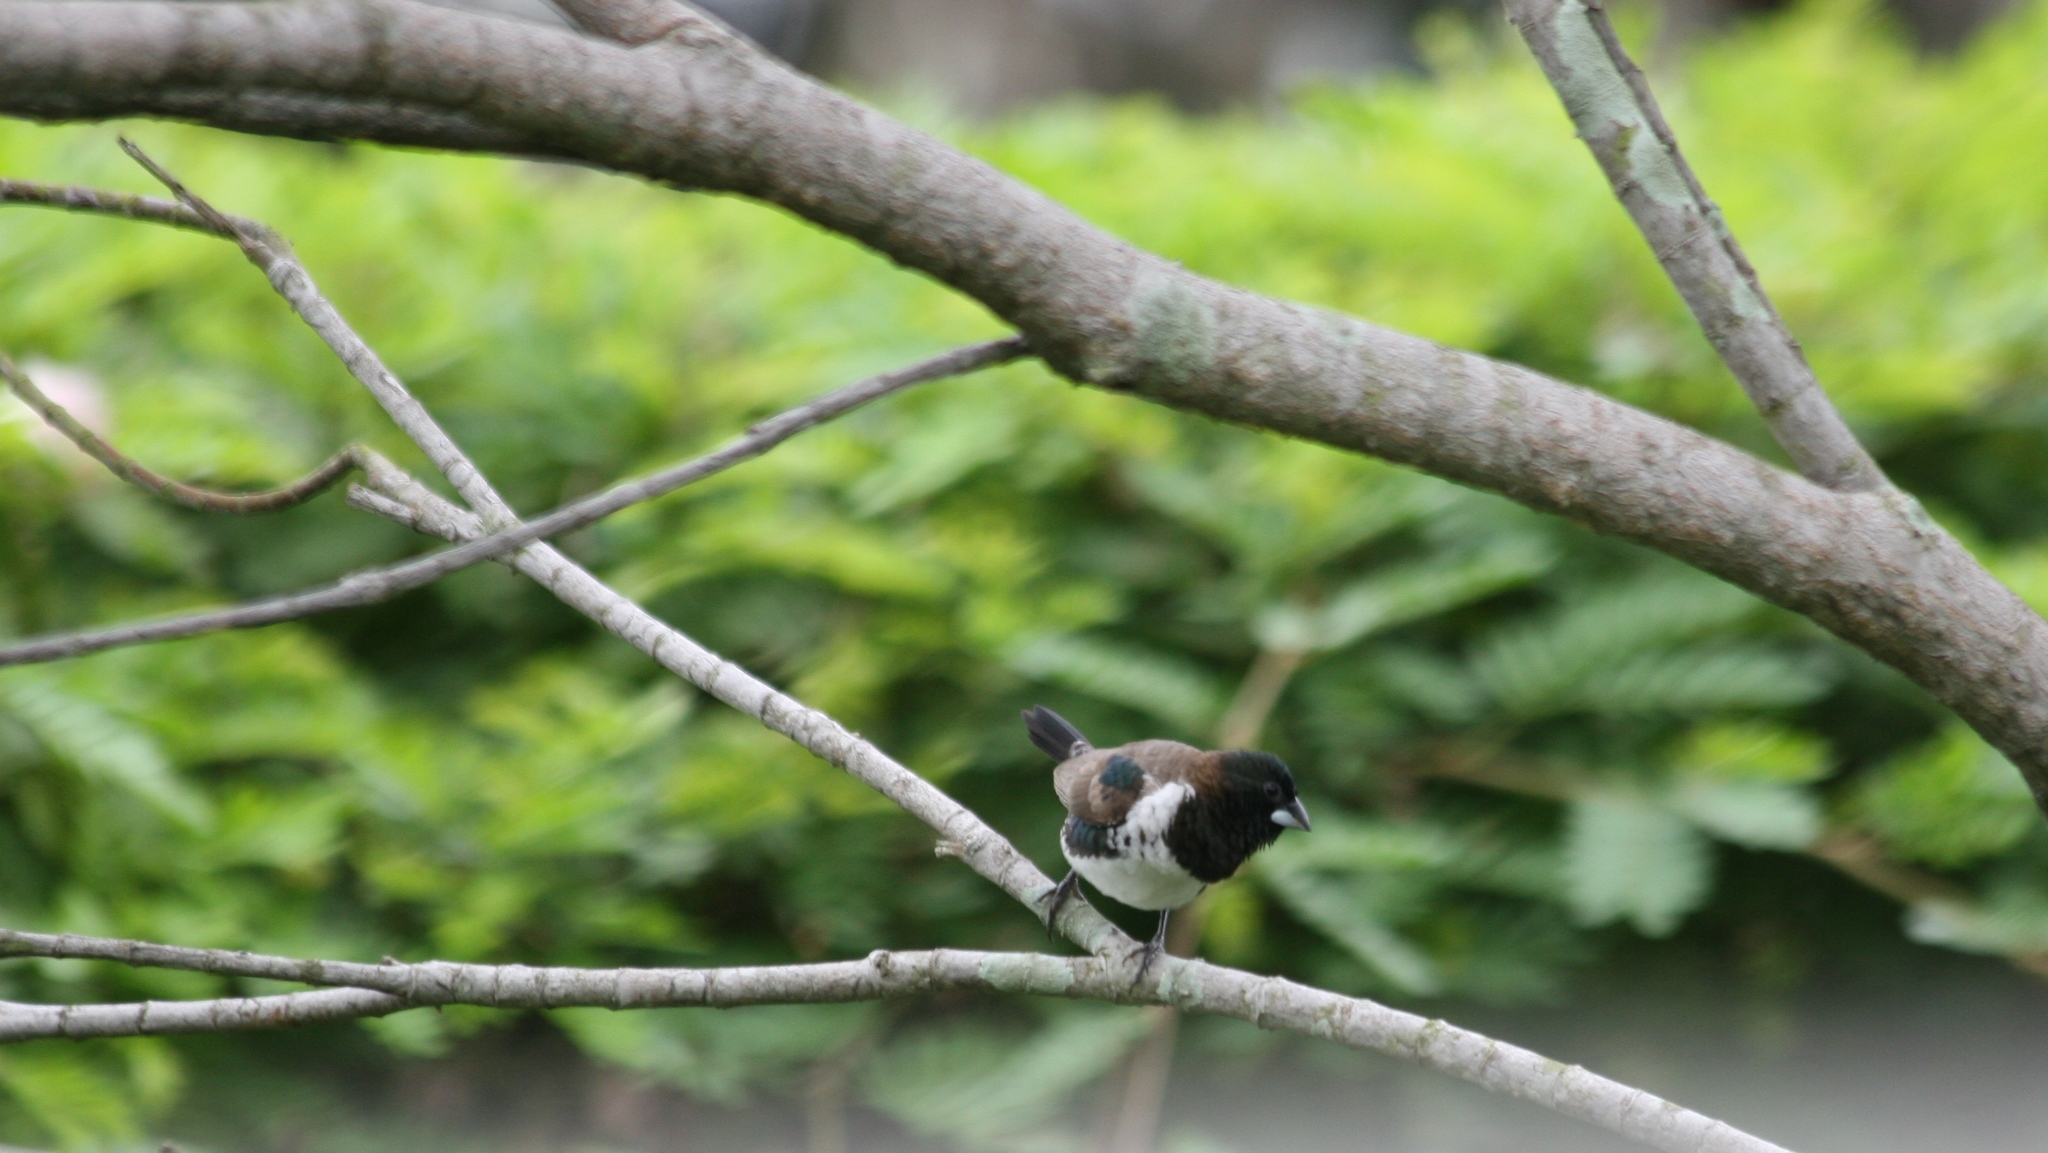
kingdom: Animalia
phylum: Chordata
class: Aves
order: Passeriformes
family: Estrildidae
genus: Lonchura
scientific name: Lonchura cucullata
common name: Bronze mannikin
